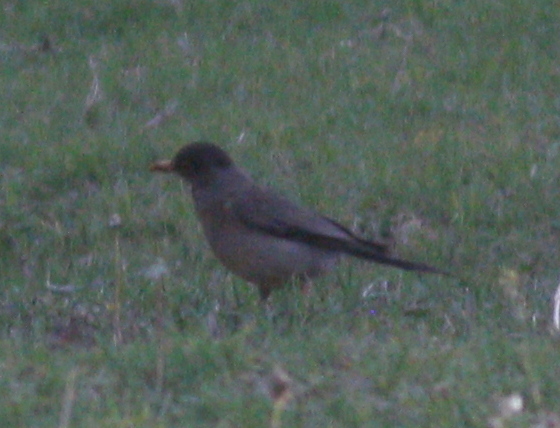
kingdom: Animalia
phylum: Chordata
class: Aves
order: Passeriformes
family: Turdidae
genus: Turdus
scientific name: Turdus falcklandii
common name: Austral thrush
